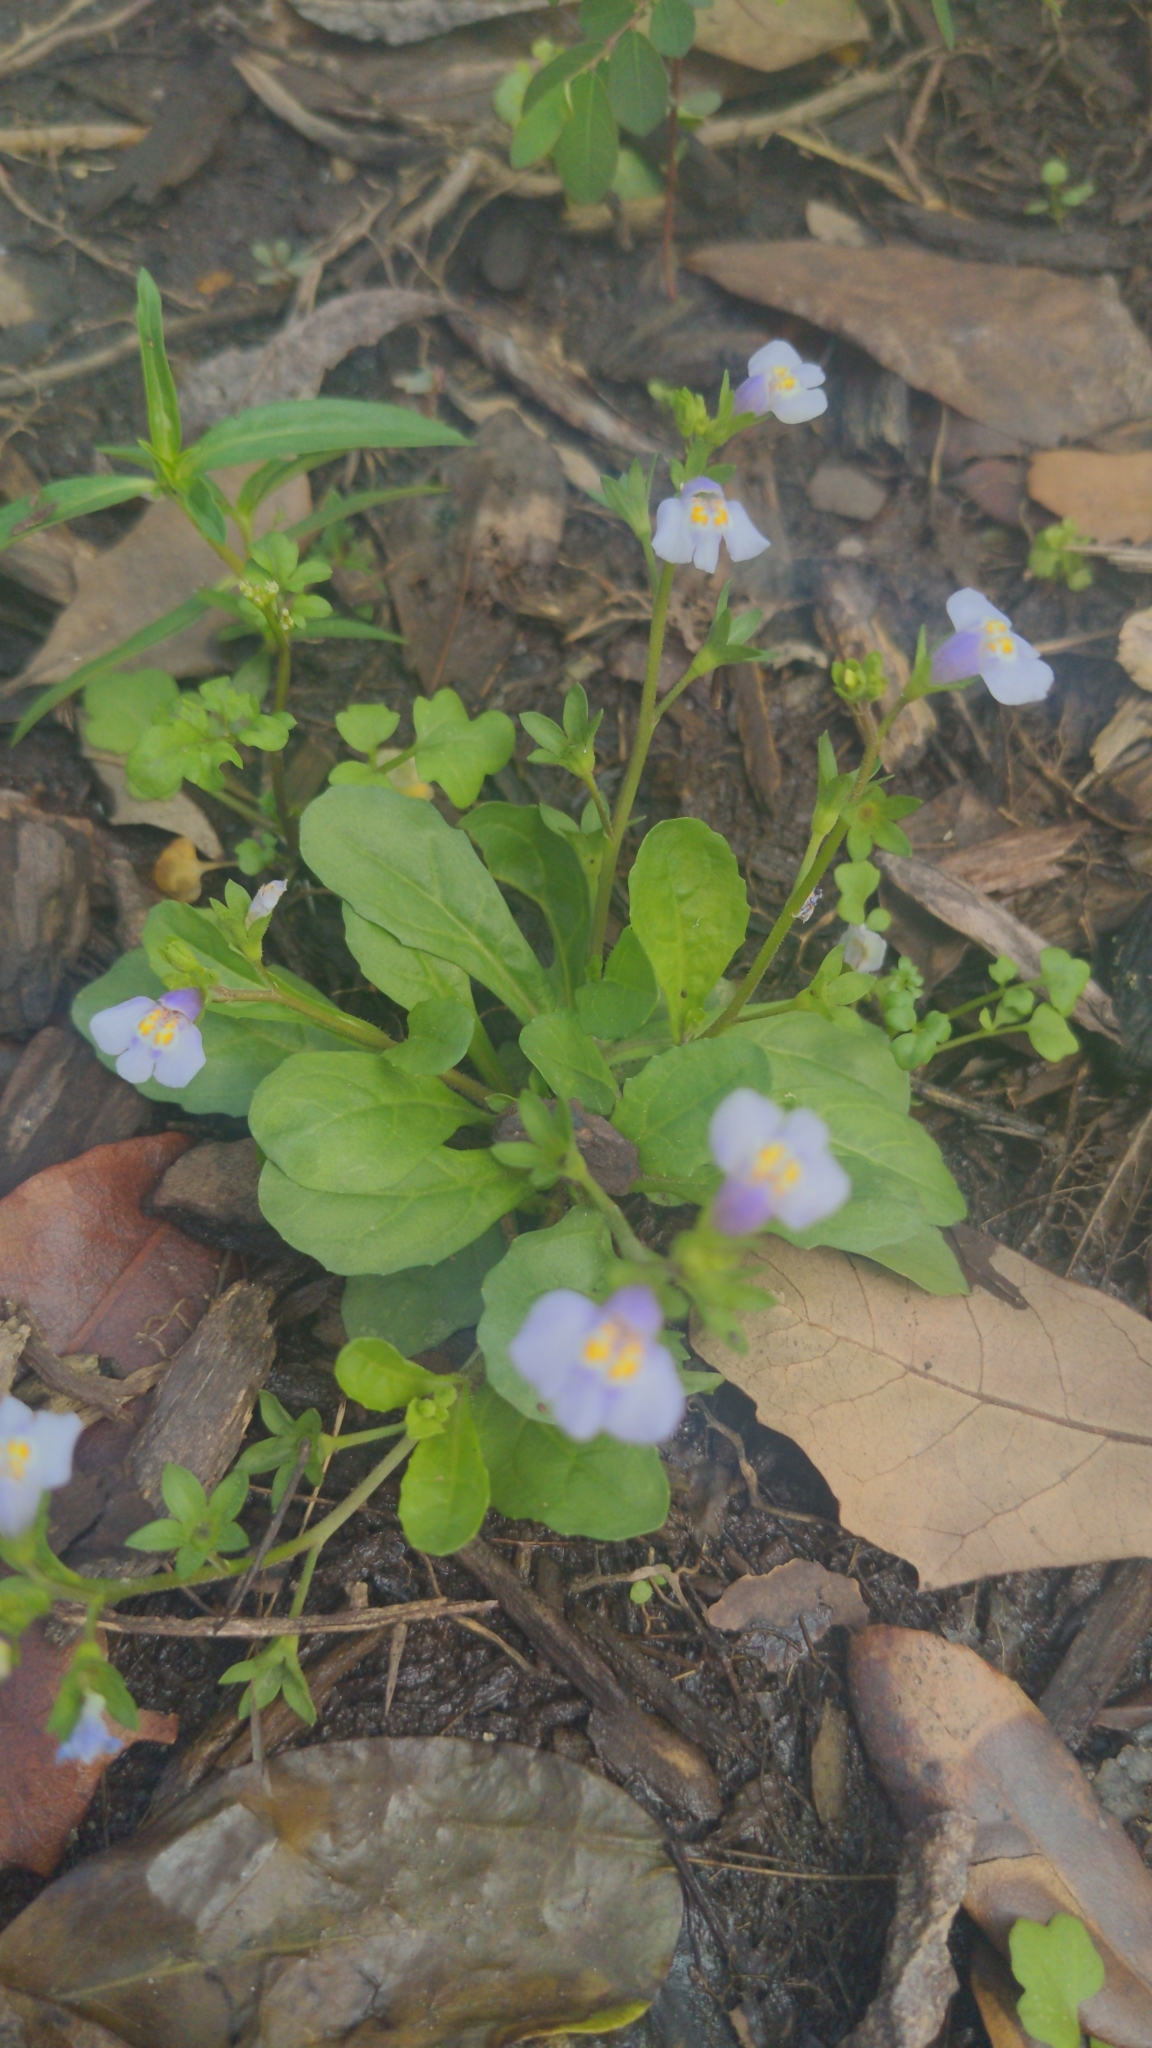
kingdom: Plantae
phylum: Tracheophyta
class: Magnoliopsida
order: Lamiales
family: Mazaceae
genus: Mazus
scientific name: Mazus pumilus
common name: Japanese mazus
